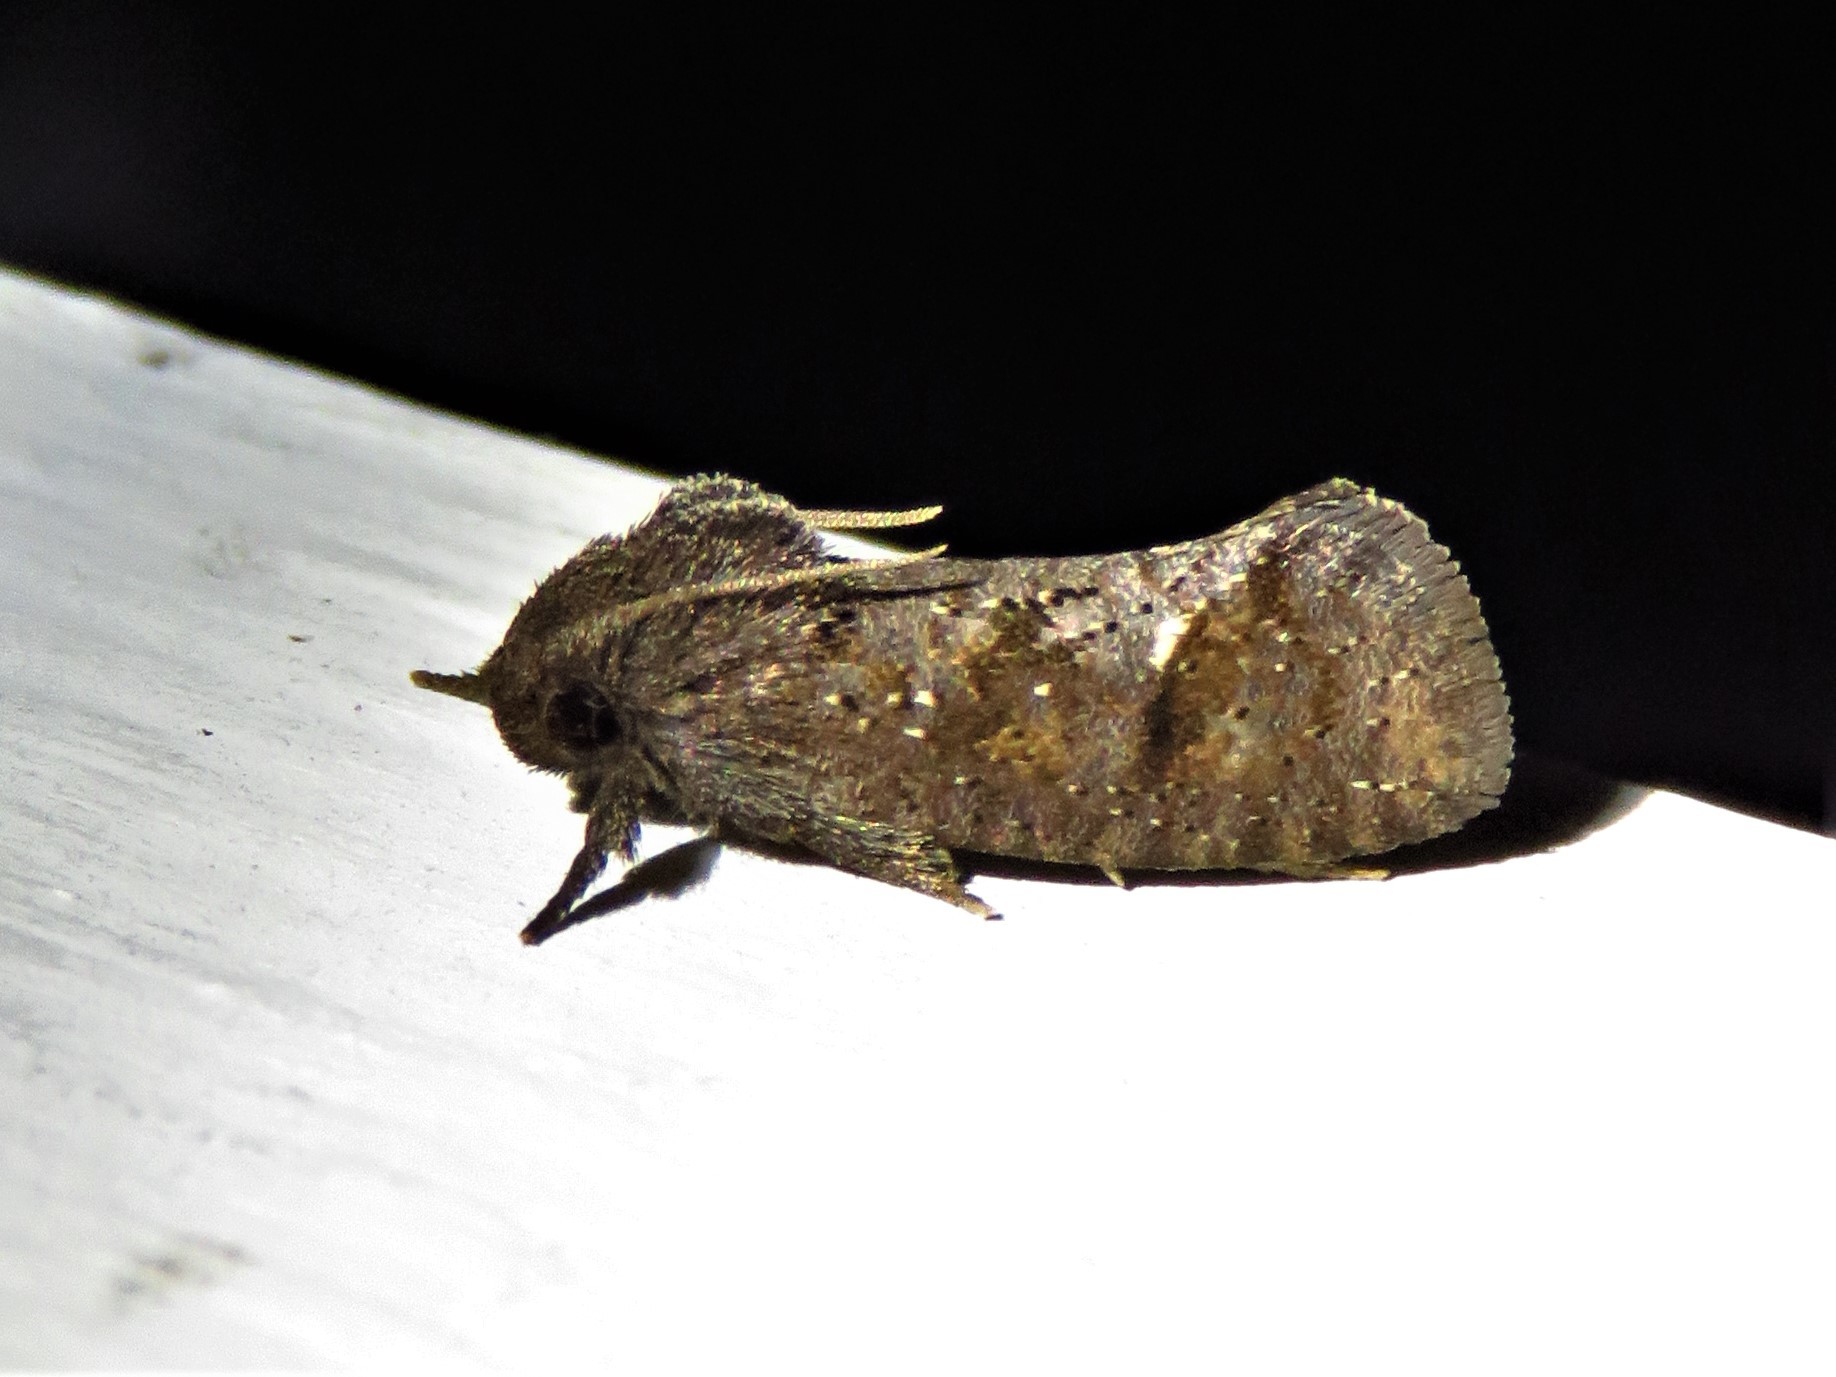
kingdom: Animalia
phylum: Arthropoda
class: Insecta
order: Lepidoptera
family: Tineidae
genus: Acrolophus
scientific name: Acrolophus texanella
